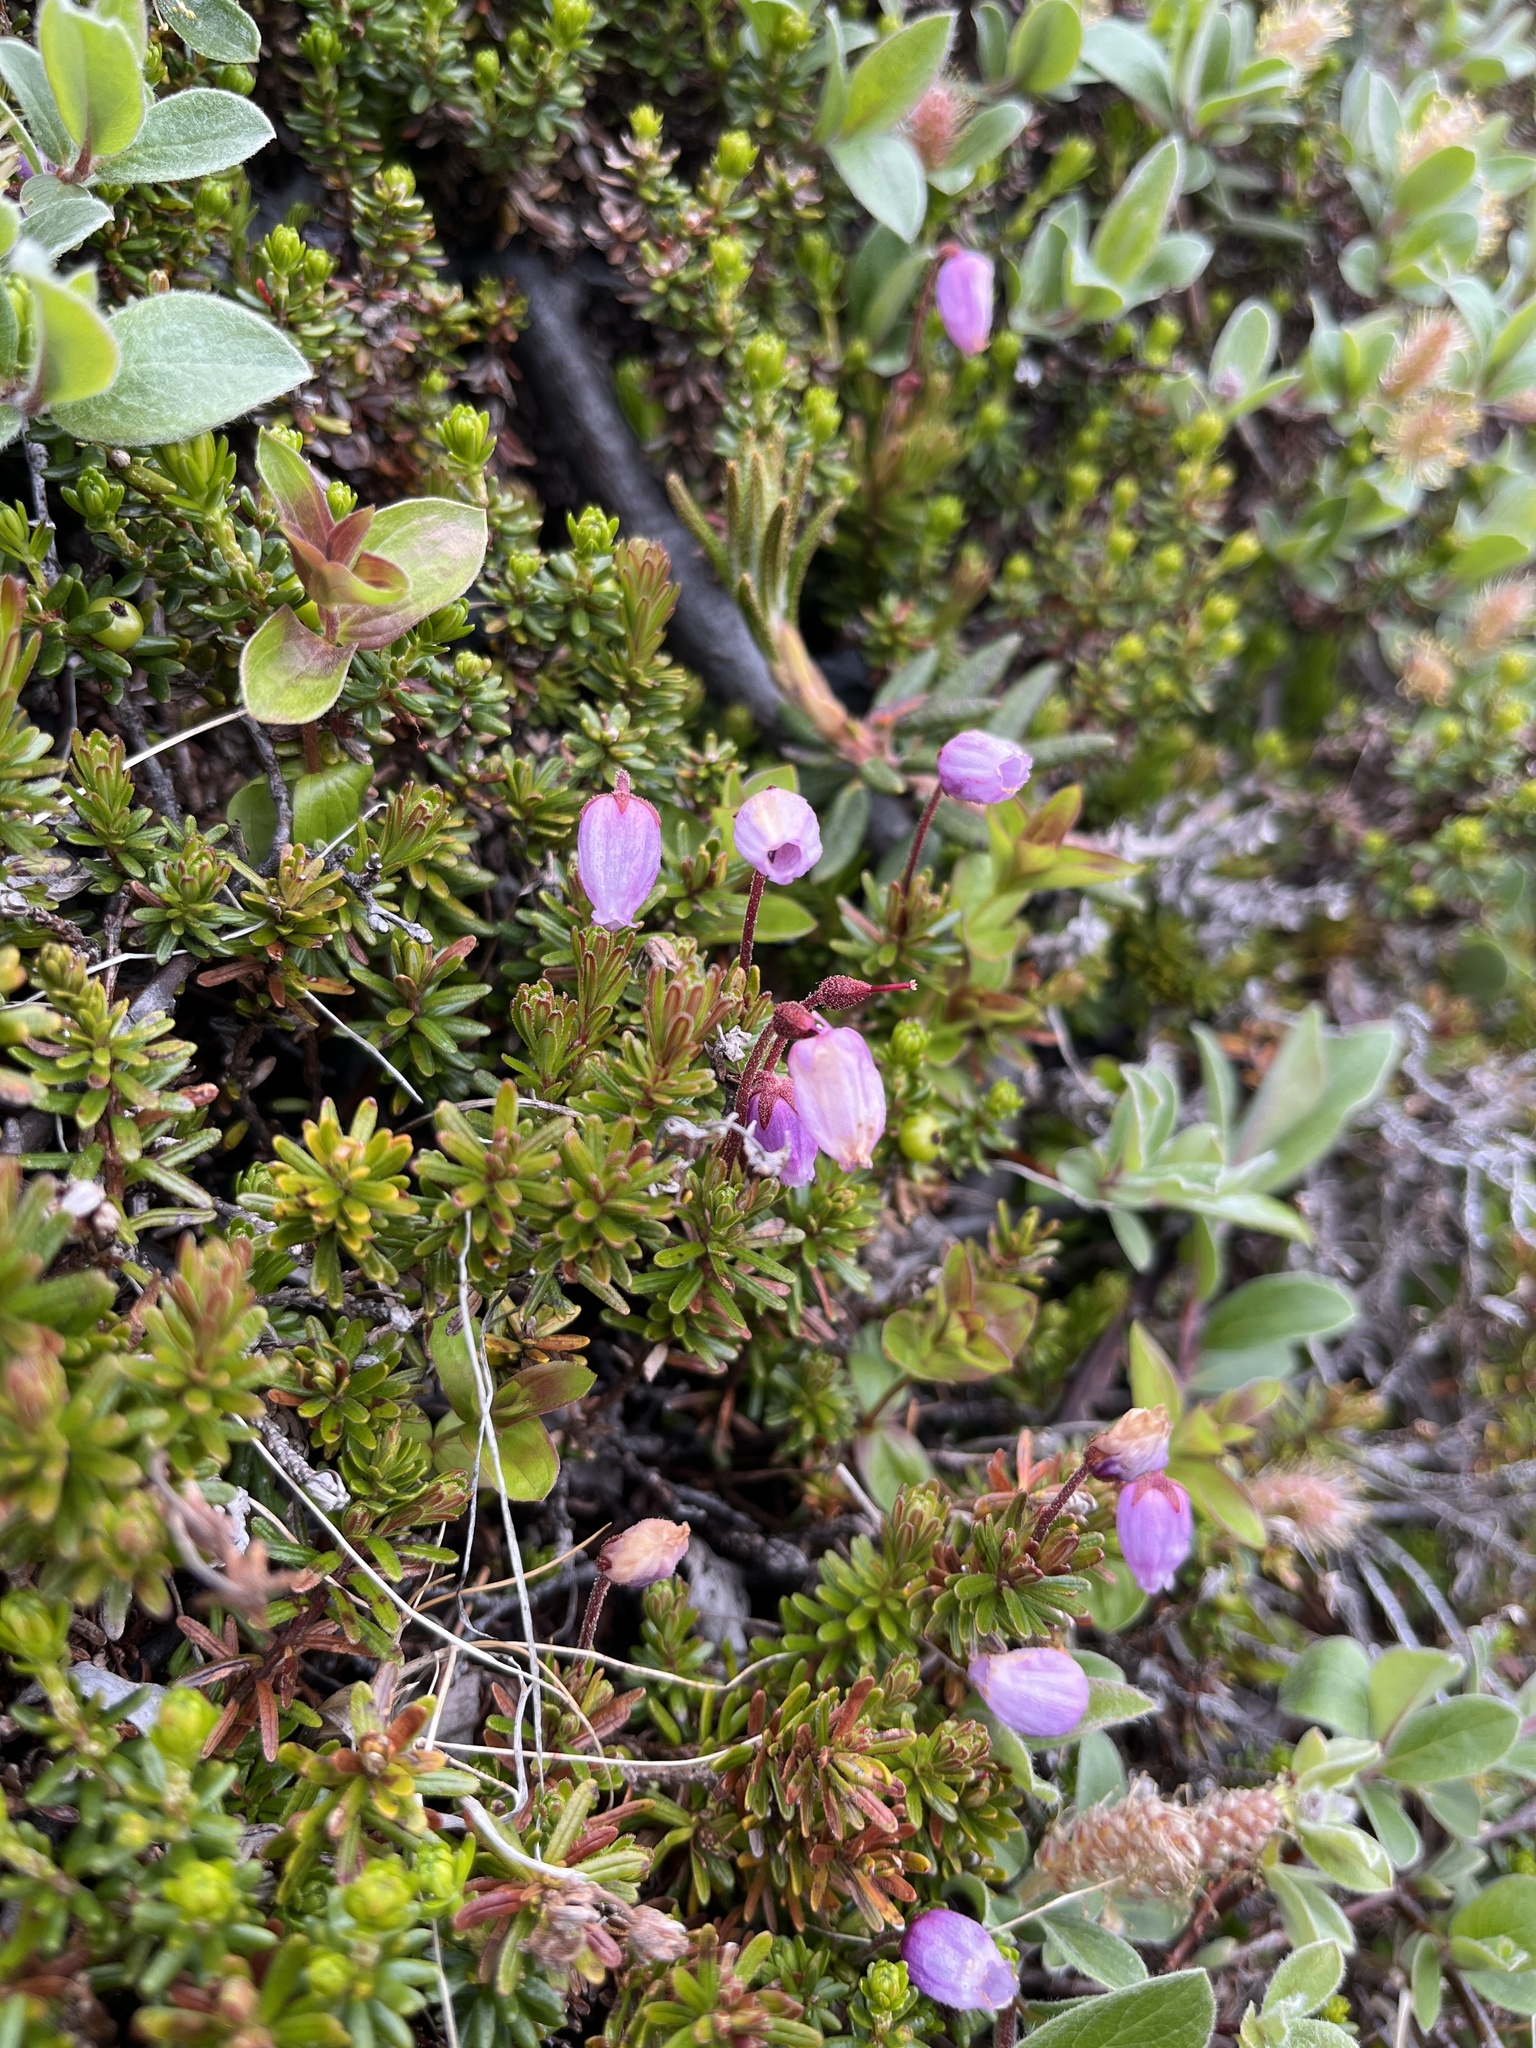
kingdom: Plantae
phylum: Tracheophyta
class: Magnoliopsida
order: Ericales
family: Ericaceae
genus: Phyllodoce
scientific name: Phyllodoce caerulea
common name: Blue heath
